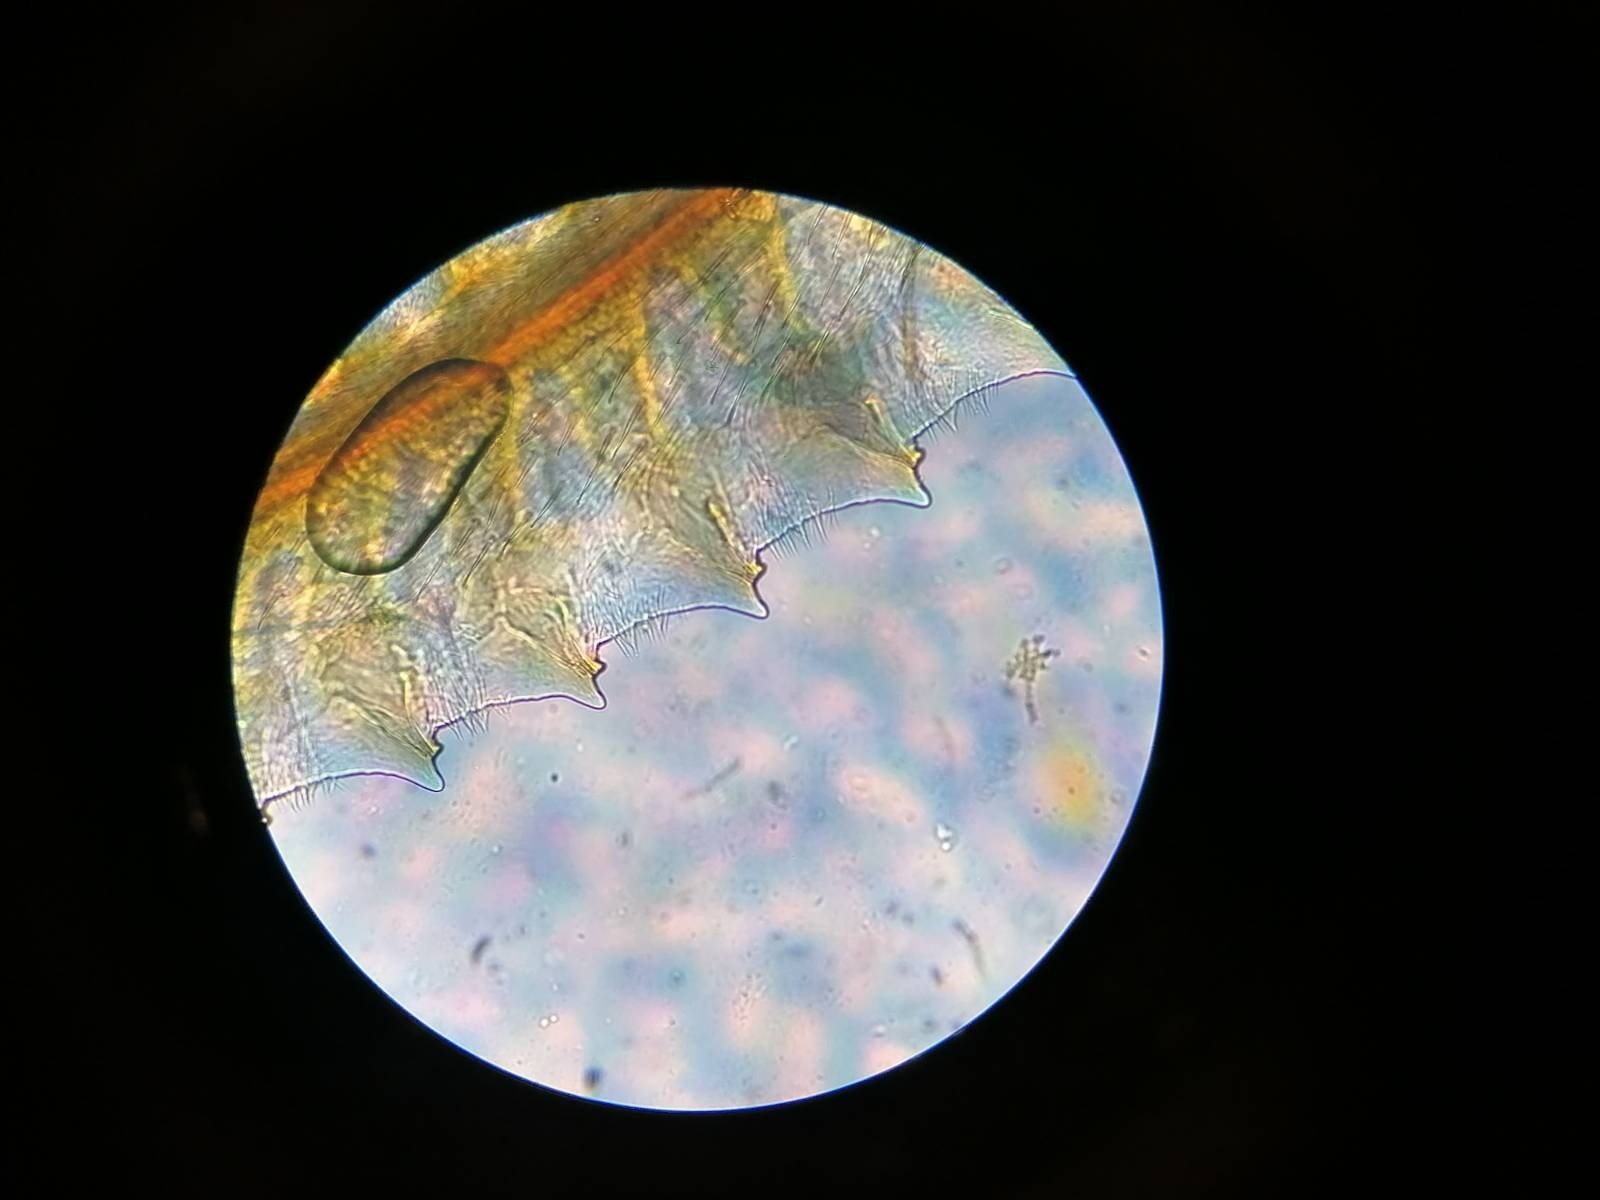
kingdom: Animalia
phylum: Arthropoda
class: Insecta
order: Hymenoptera
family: Tenthredinidae
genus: Tenthredo
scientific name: Tenthredo brevicornis
